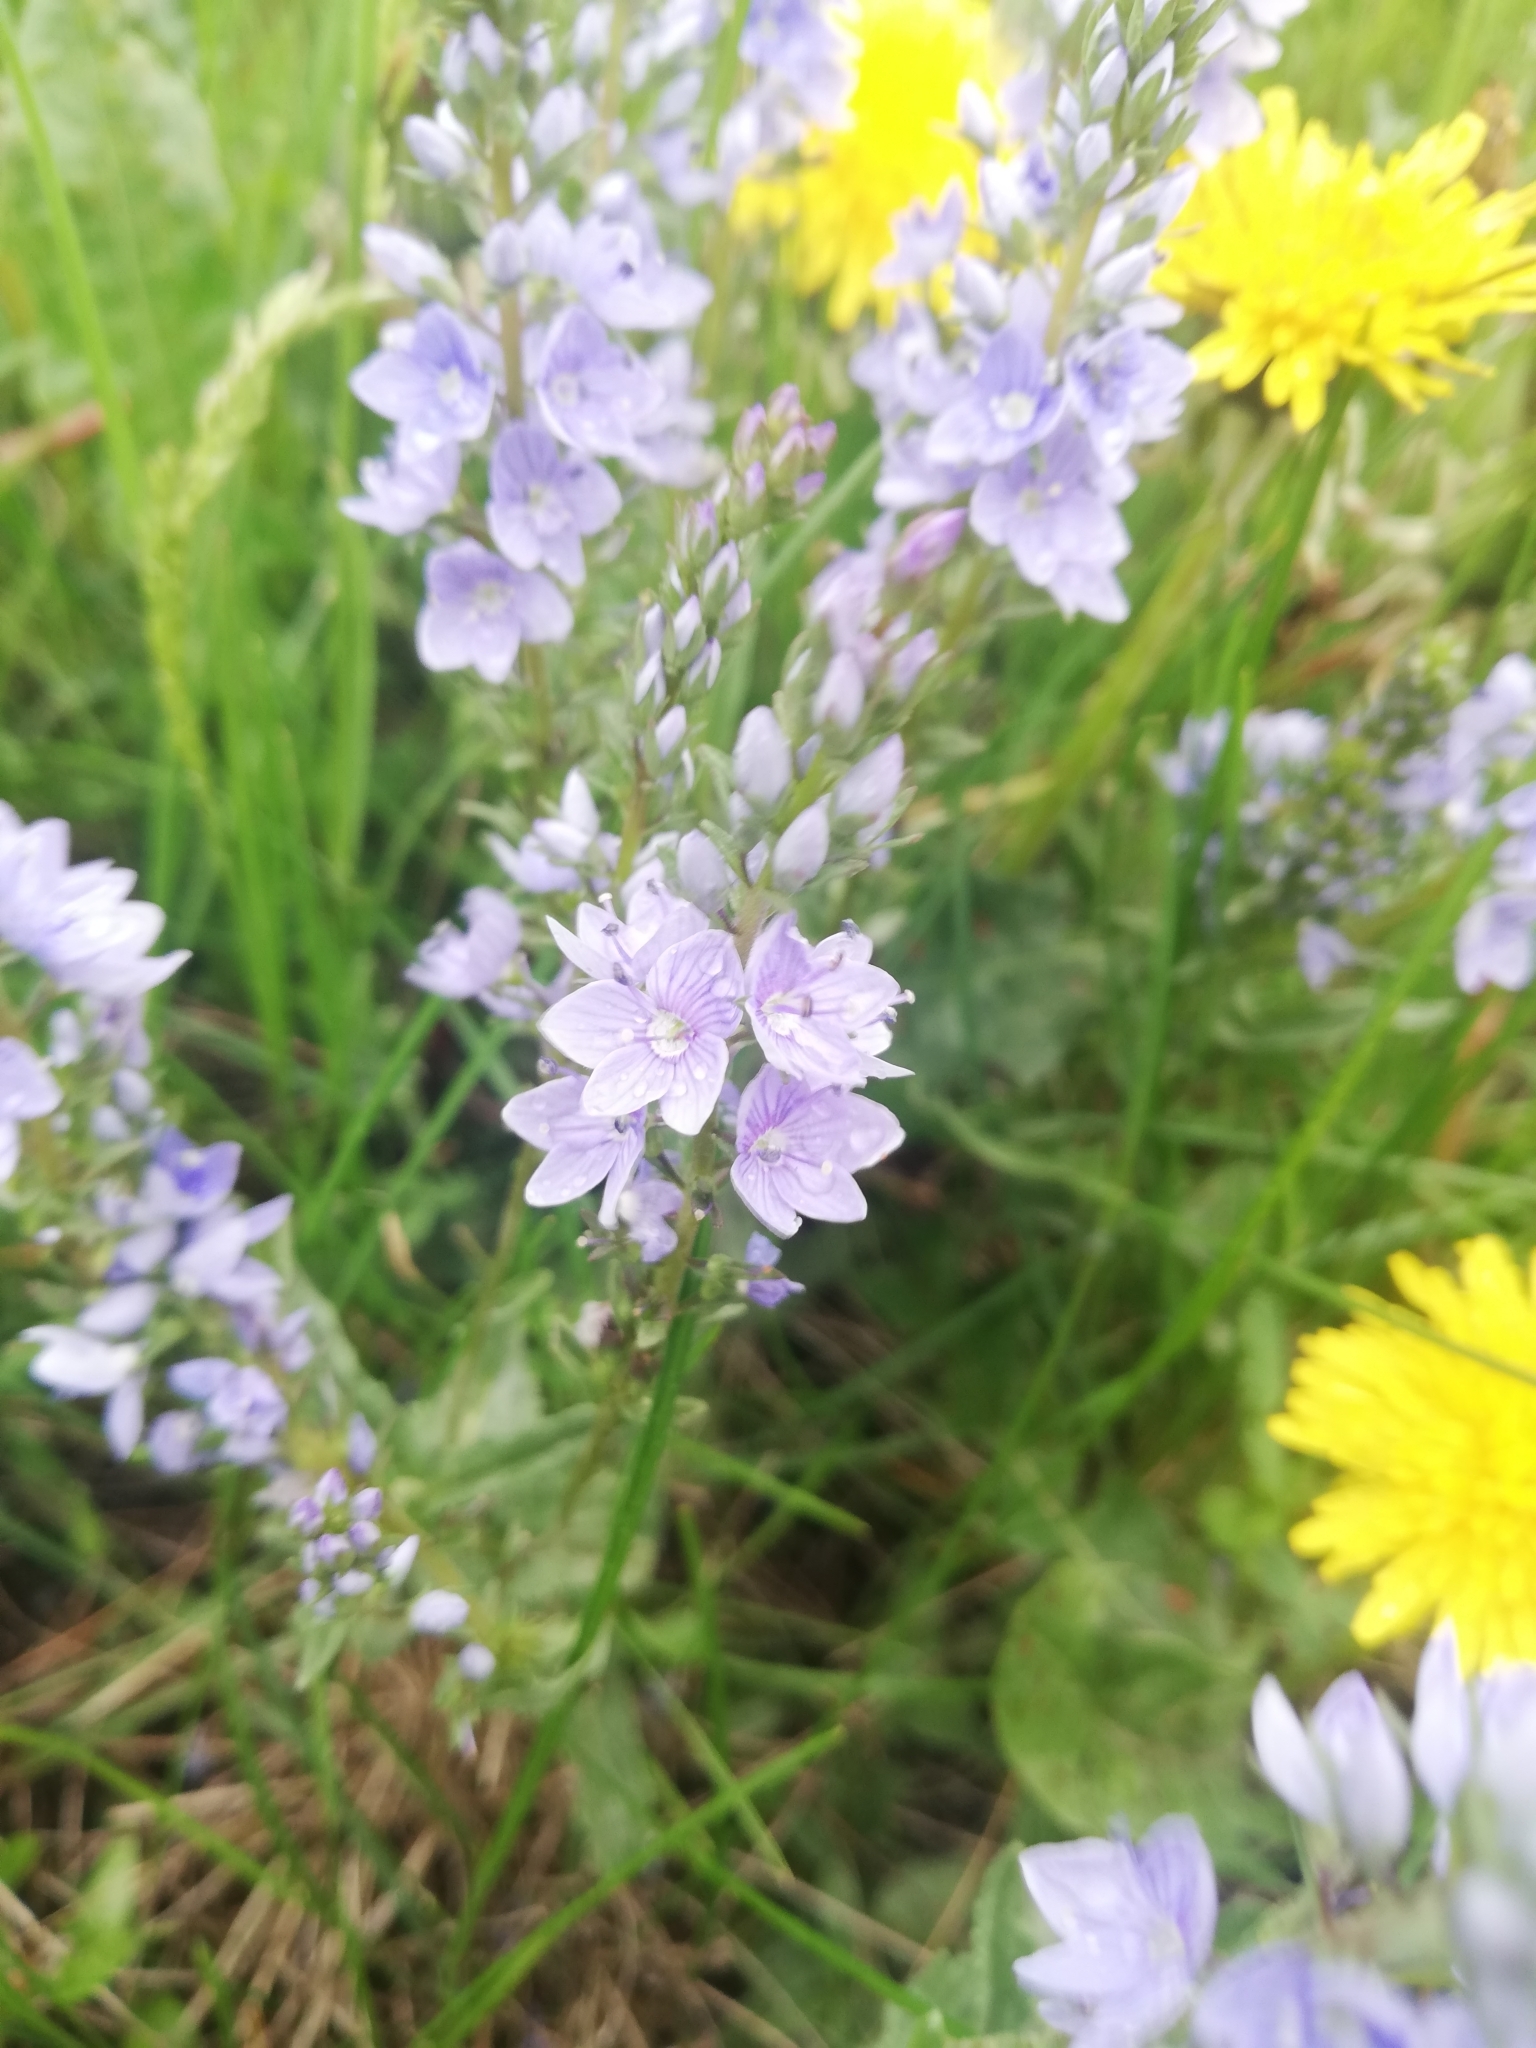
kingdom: Plantae
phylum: Tracheophyta
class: Magnoliopsida
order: Lamiales
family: Plantaginaceae
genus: Veronica
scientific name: Veronica prostrata
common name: Prostrate speedwell
